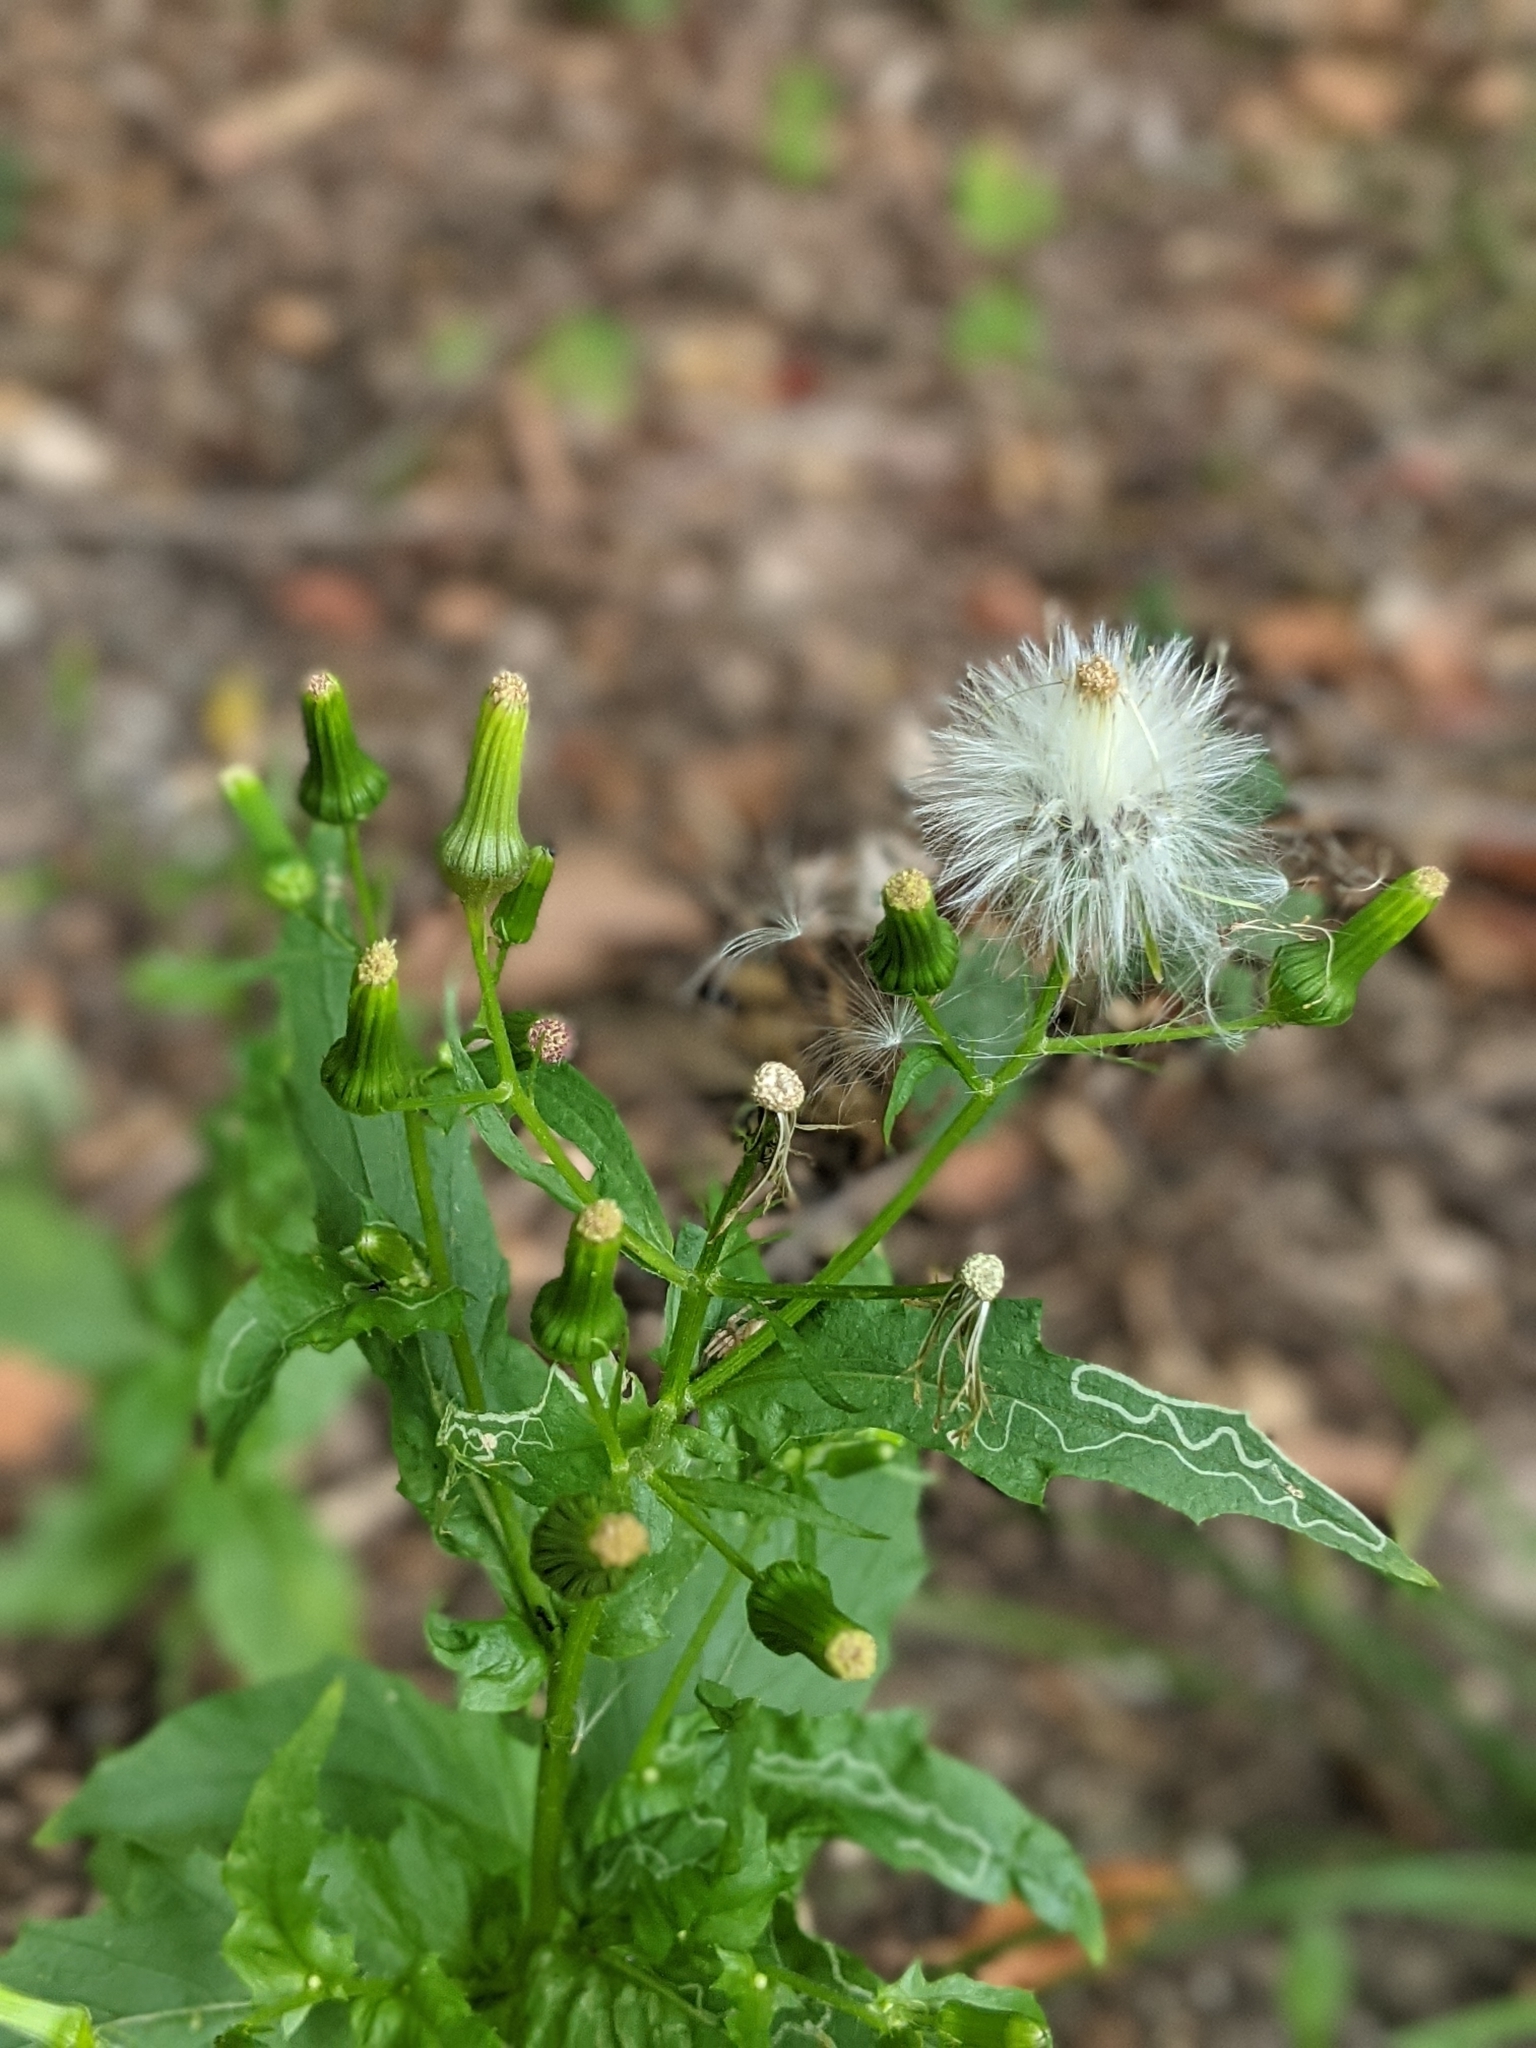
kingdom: Plantae
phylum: Tracheophyta
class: Magnoliopsida
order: Asterales
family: Asteraceae
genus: Erechtites
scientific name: Erechtites hieraciifolius
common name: American burnweed
